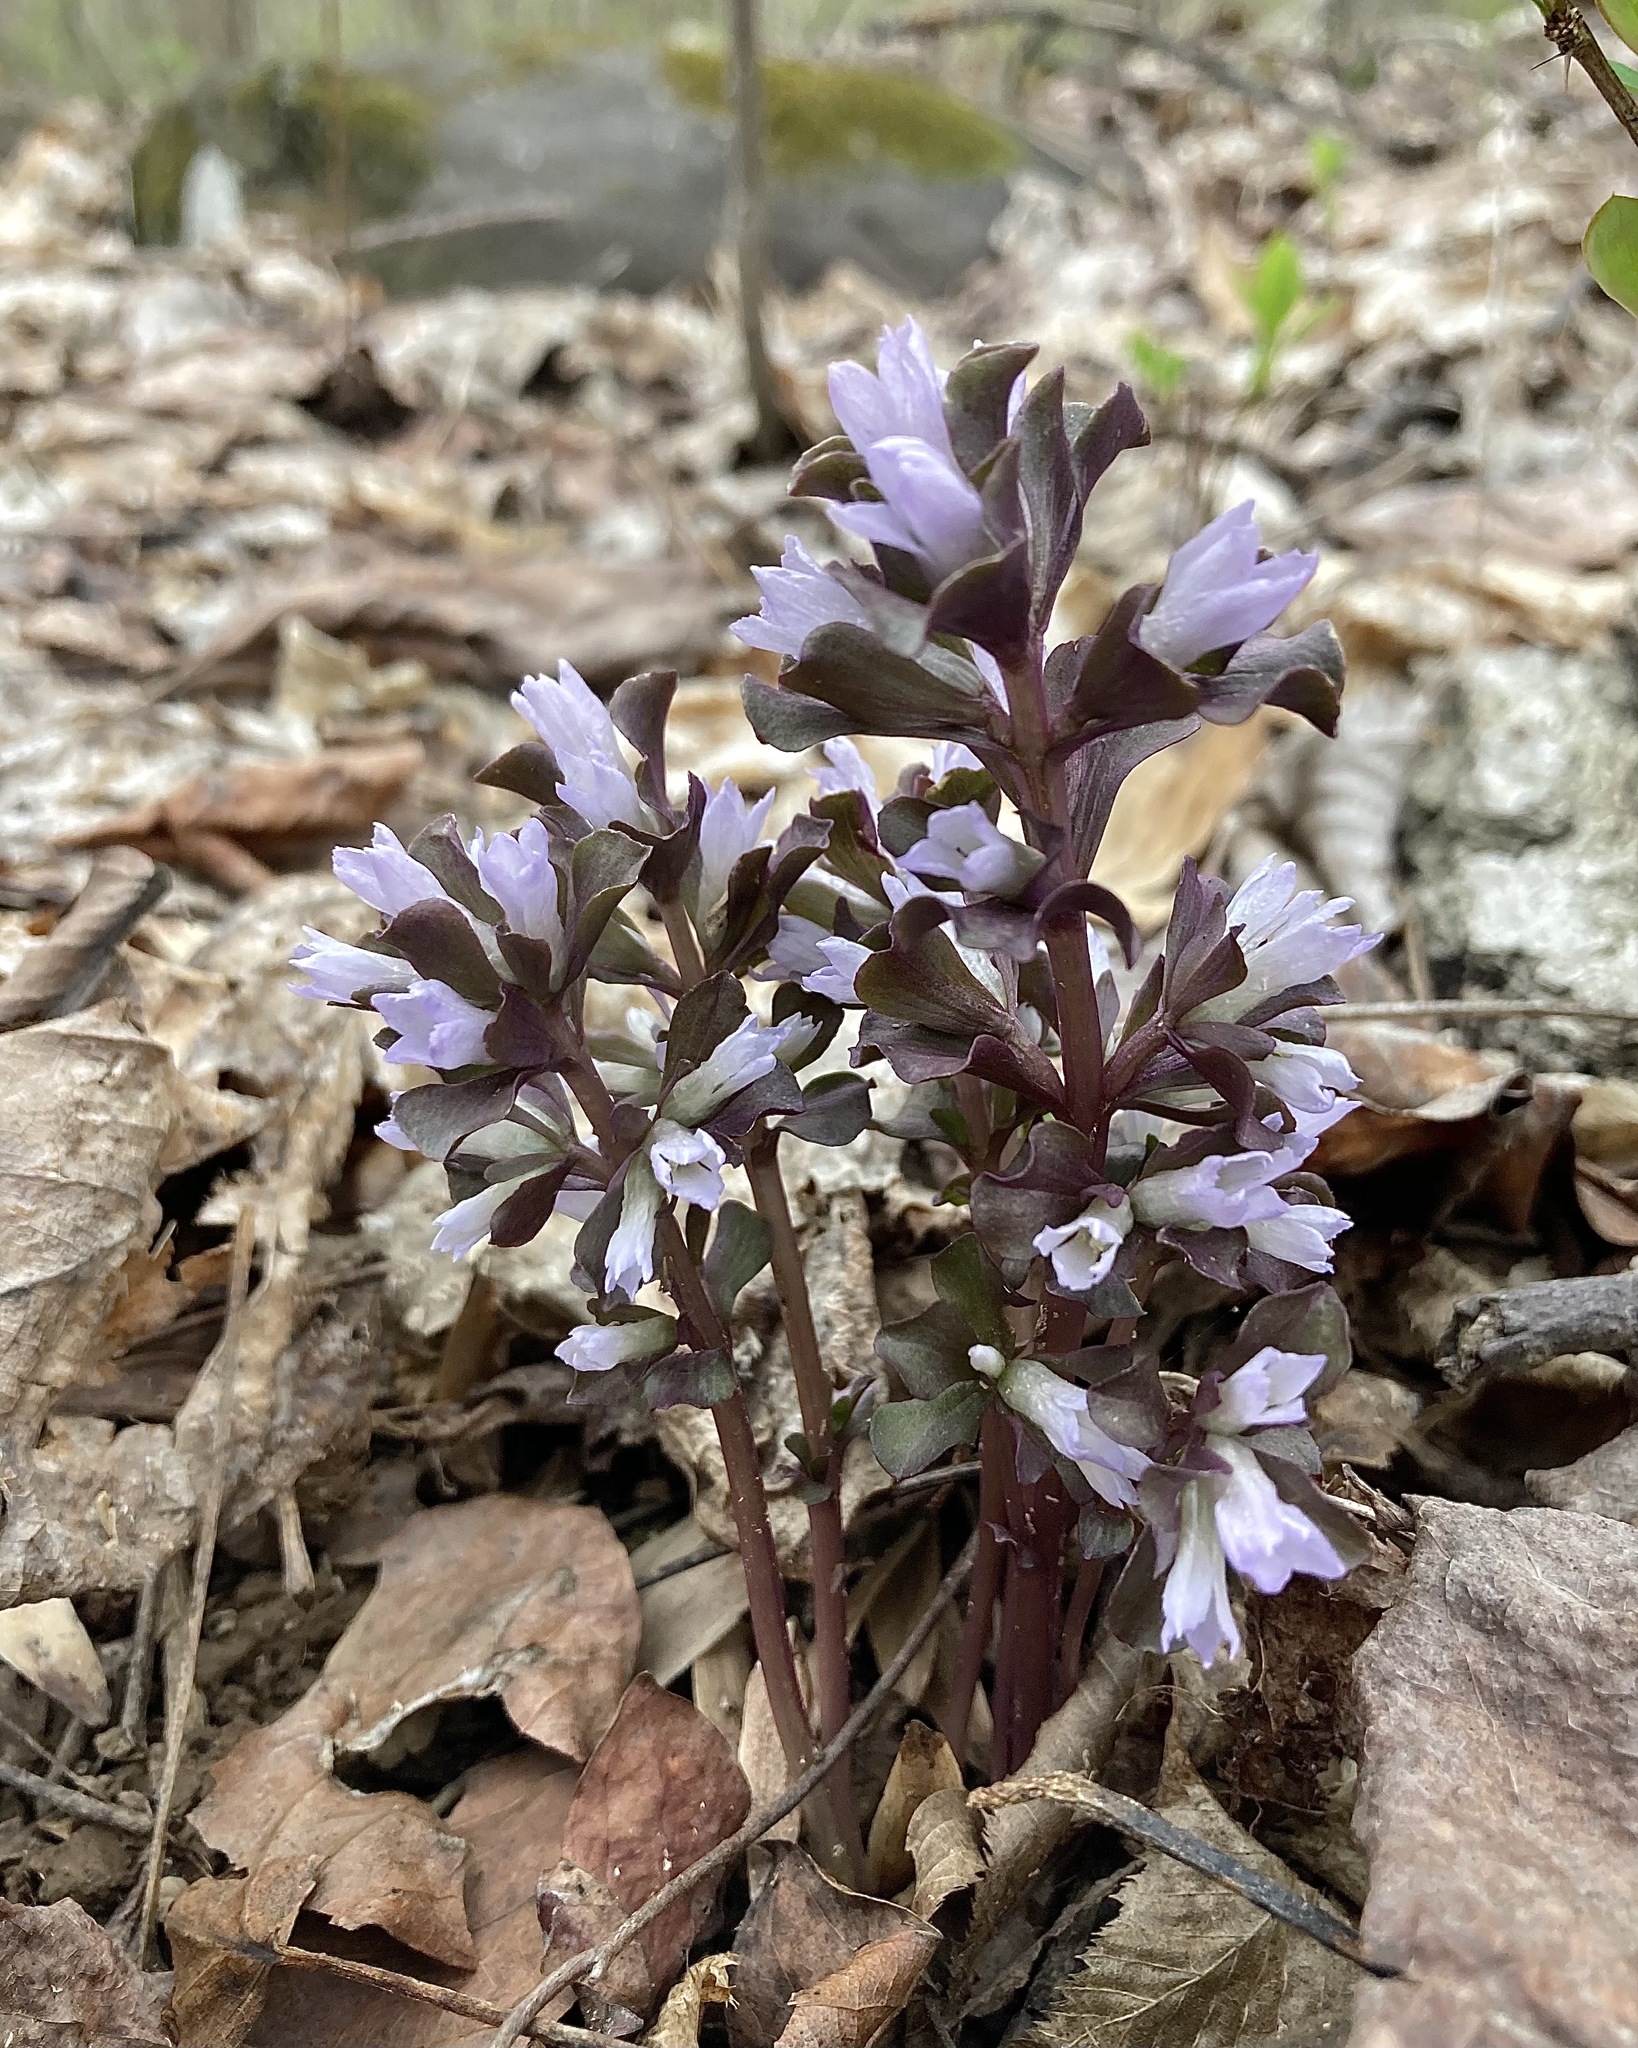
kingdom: Plantae
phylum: Tracheophyta
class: Magnoliopsida
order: Gentianales
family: Gentianaceae
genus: Obolaria
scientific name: Obolaria virginica
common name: Pennywort
